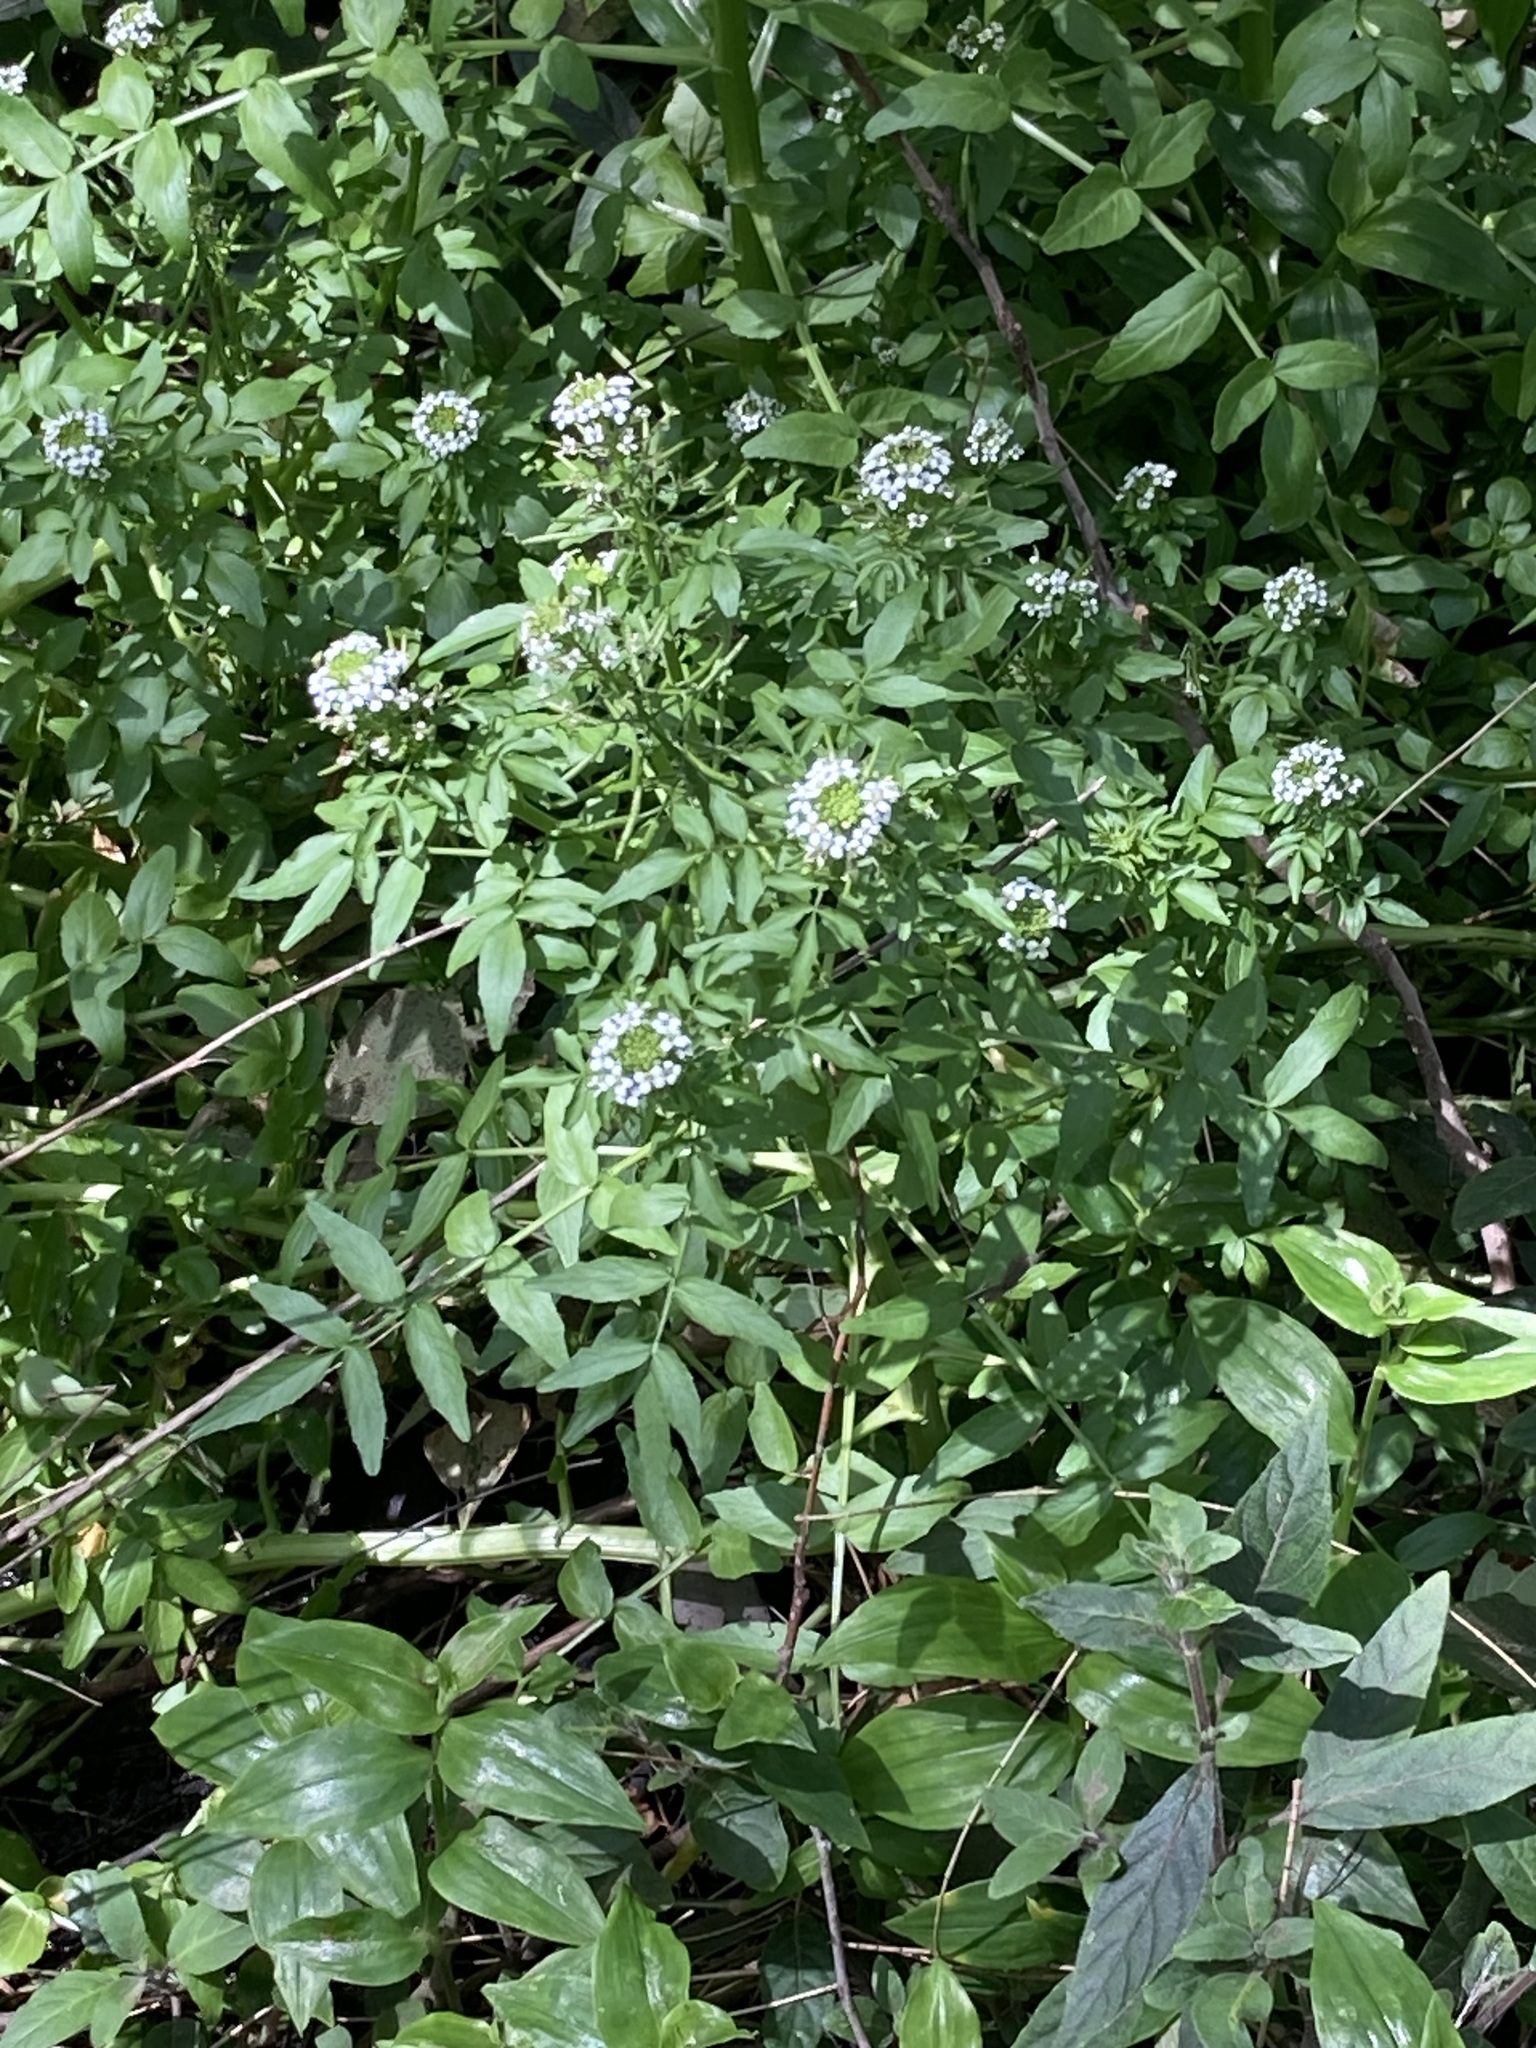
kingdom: Plantae
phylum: Tracheophyta
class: Magnoliopsida
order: Brassicales
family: Brassicaceae
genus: Nasturtium
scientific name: Nasturtium officinale
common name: Watercress
